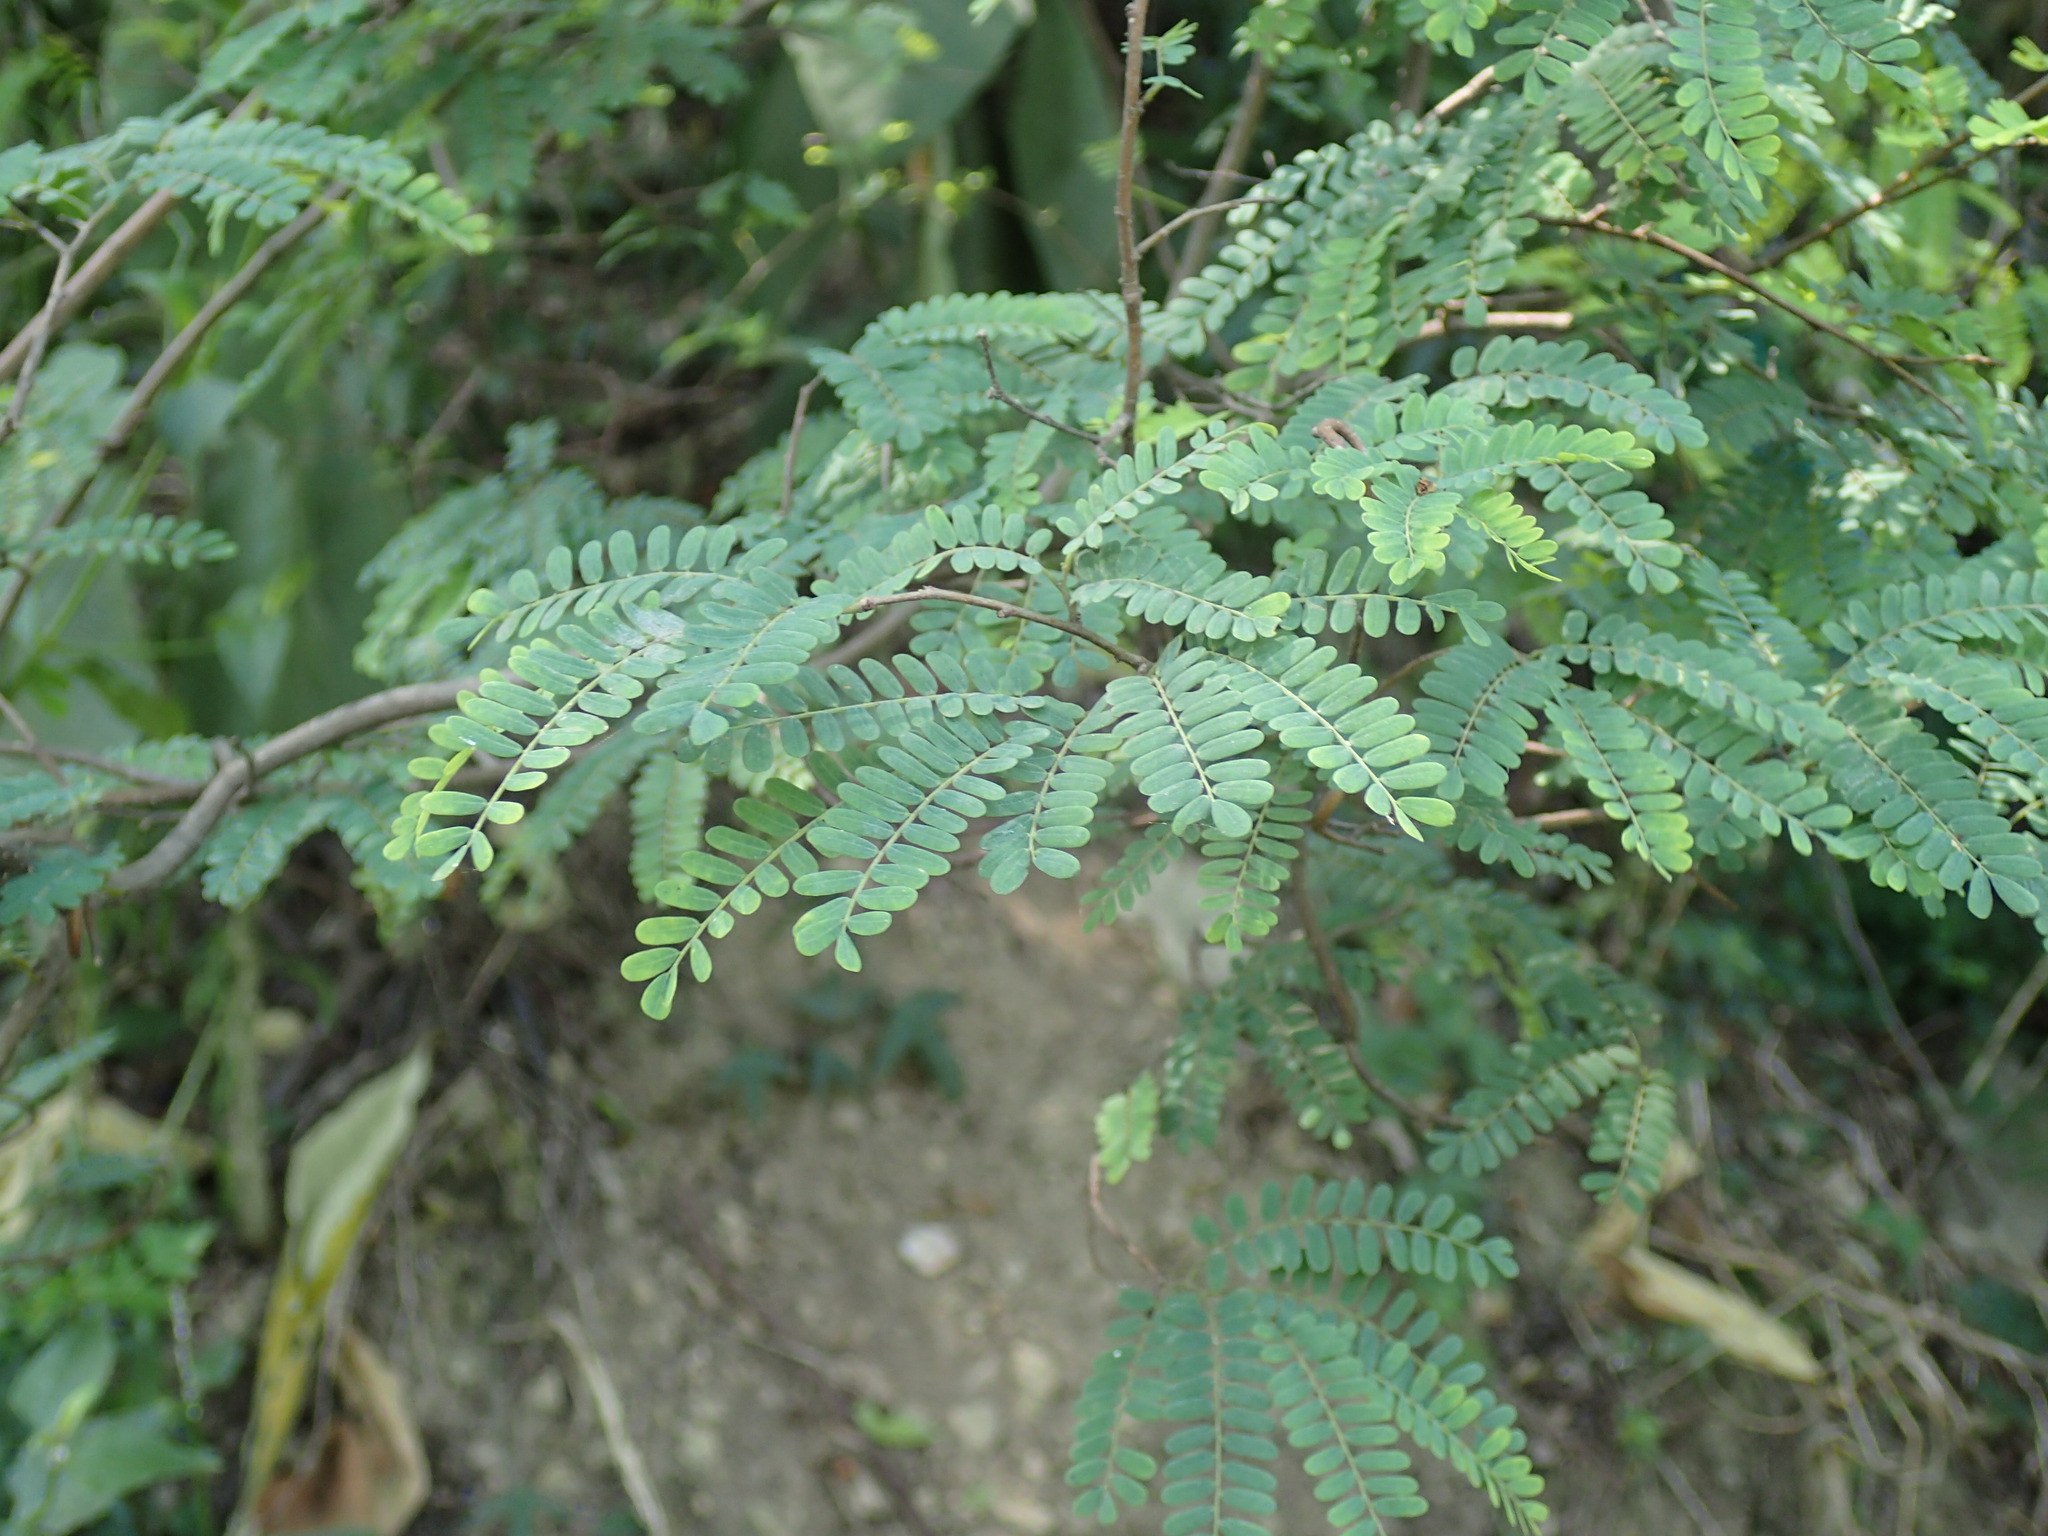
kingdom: Plantae
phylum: Tracheophyta
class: Magnoliopsida
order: Fabales
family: Fabaceae
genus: Dalbergia
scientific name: Dalbergia armata
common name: Hluhluwe climber
